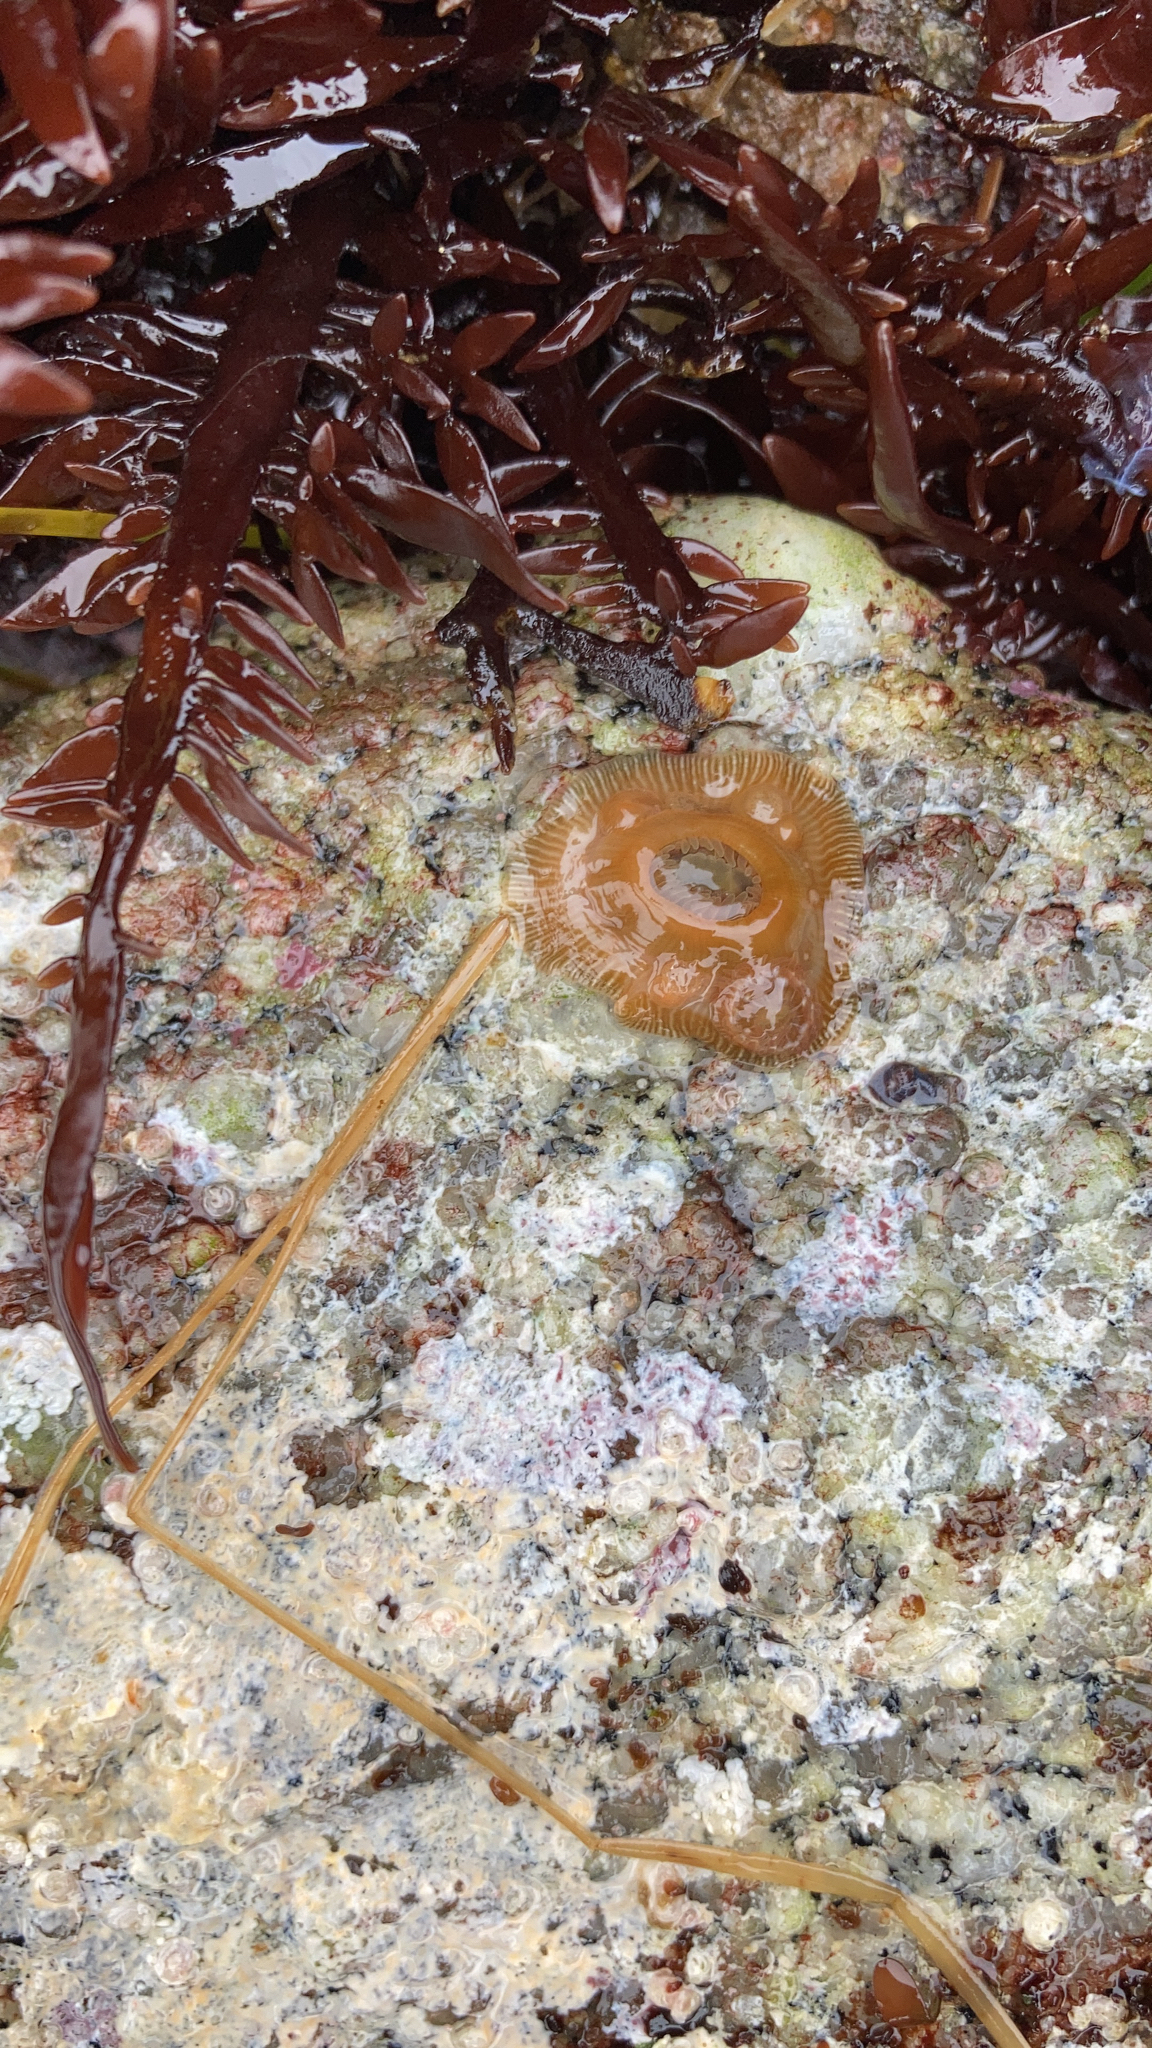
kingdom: Animalia
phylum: Cnidaria
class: Anthozoa
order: Actiniaria
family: Actiniidae
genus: Epiactis
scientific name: Epiactis prolifera
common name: Brooding anemone
